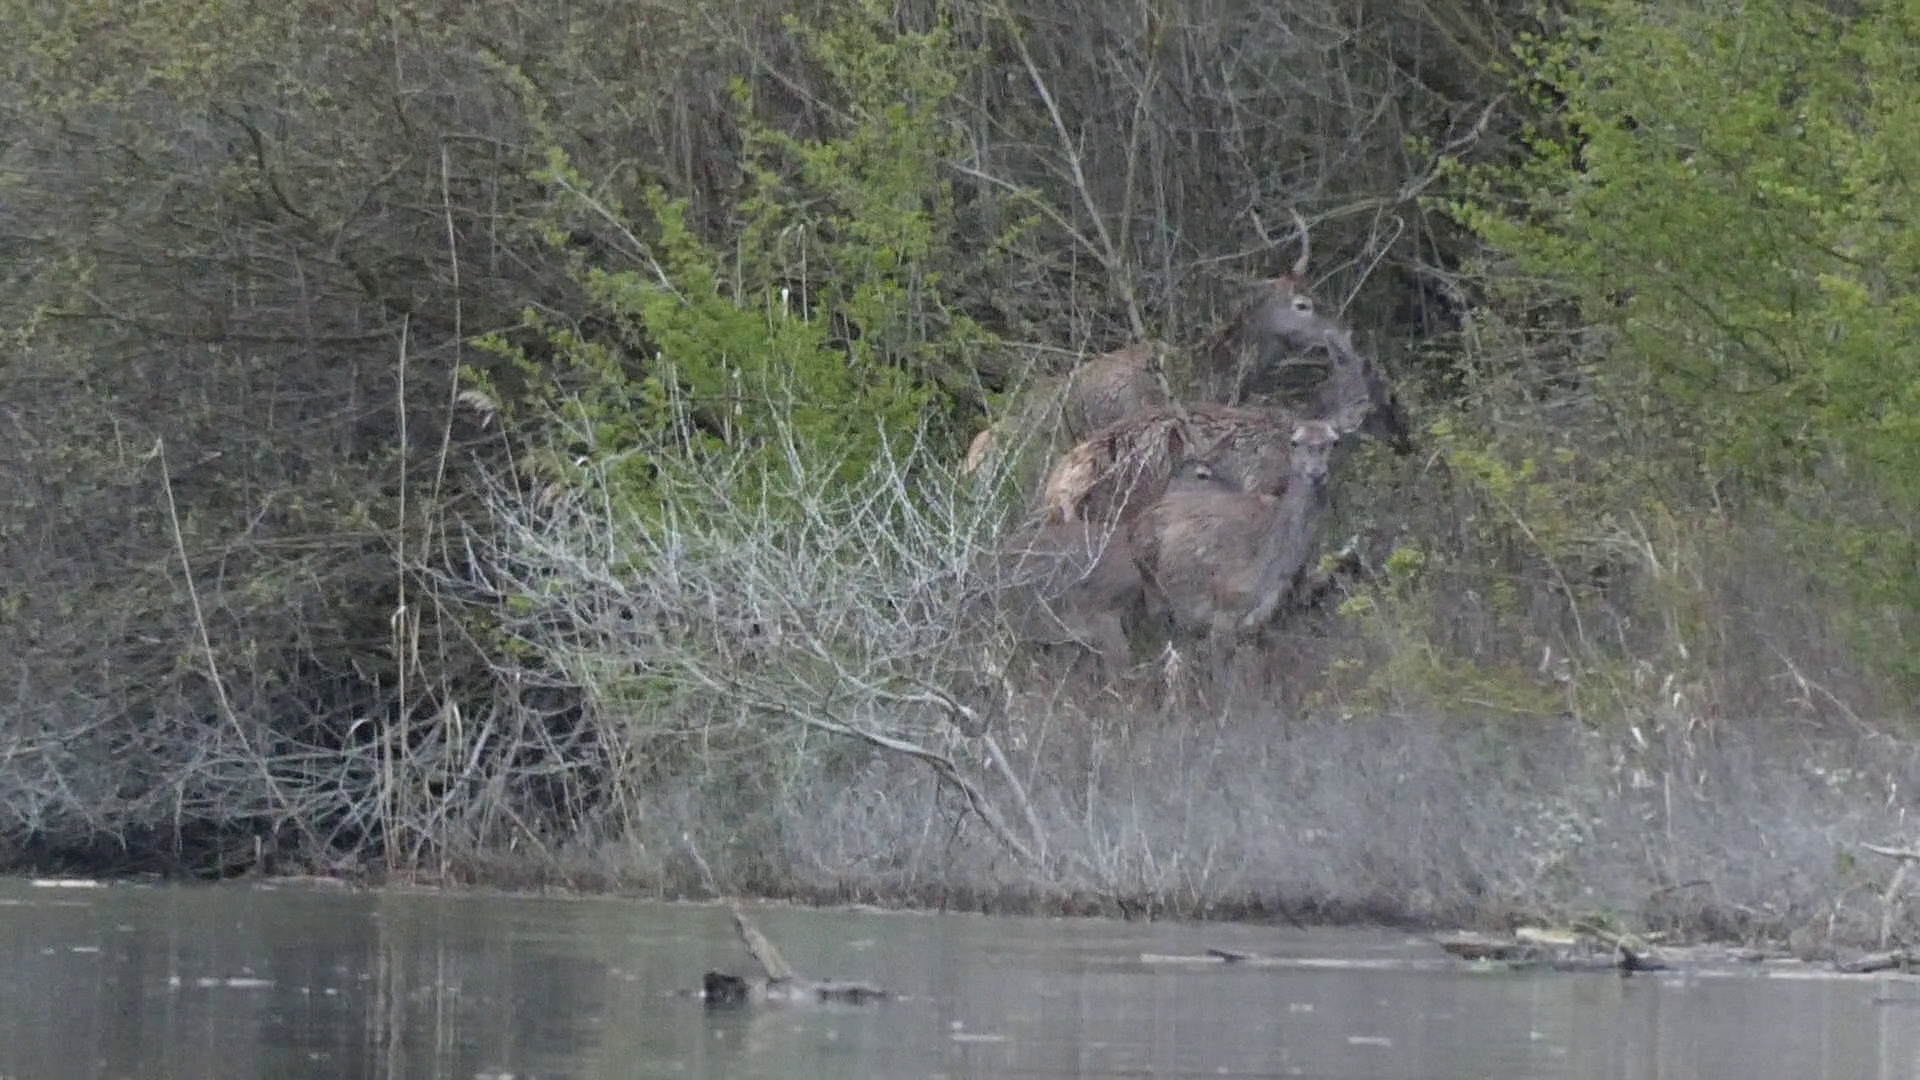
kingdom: Animalia
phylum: Chordata
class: Mammalia
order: Artiodactyla
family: Cervidae
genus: Cervus
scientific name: Cervus elaphus
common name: Red deer
